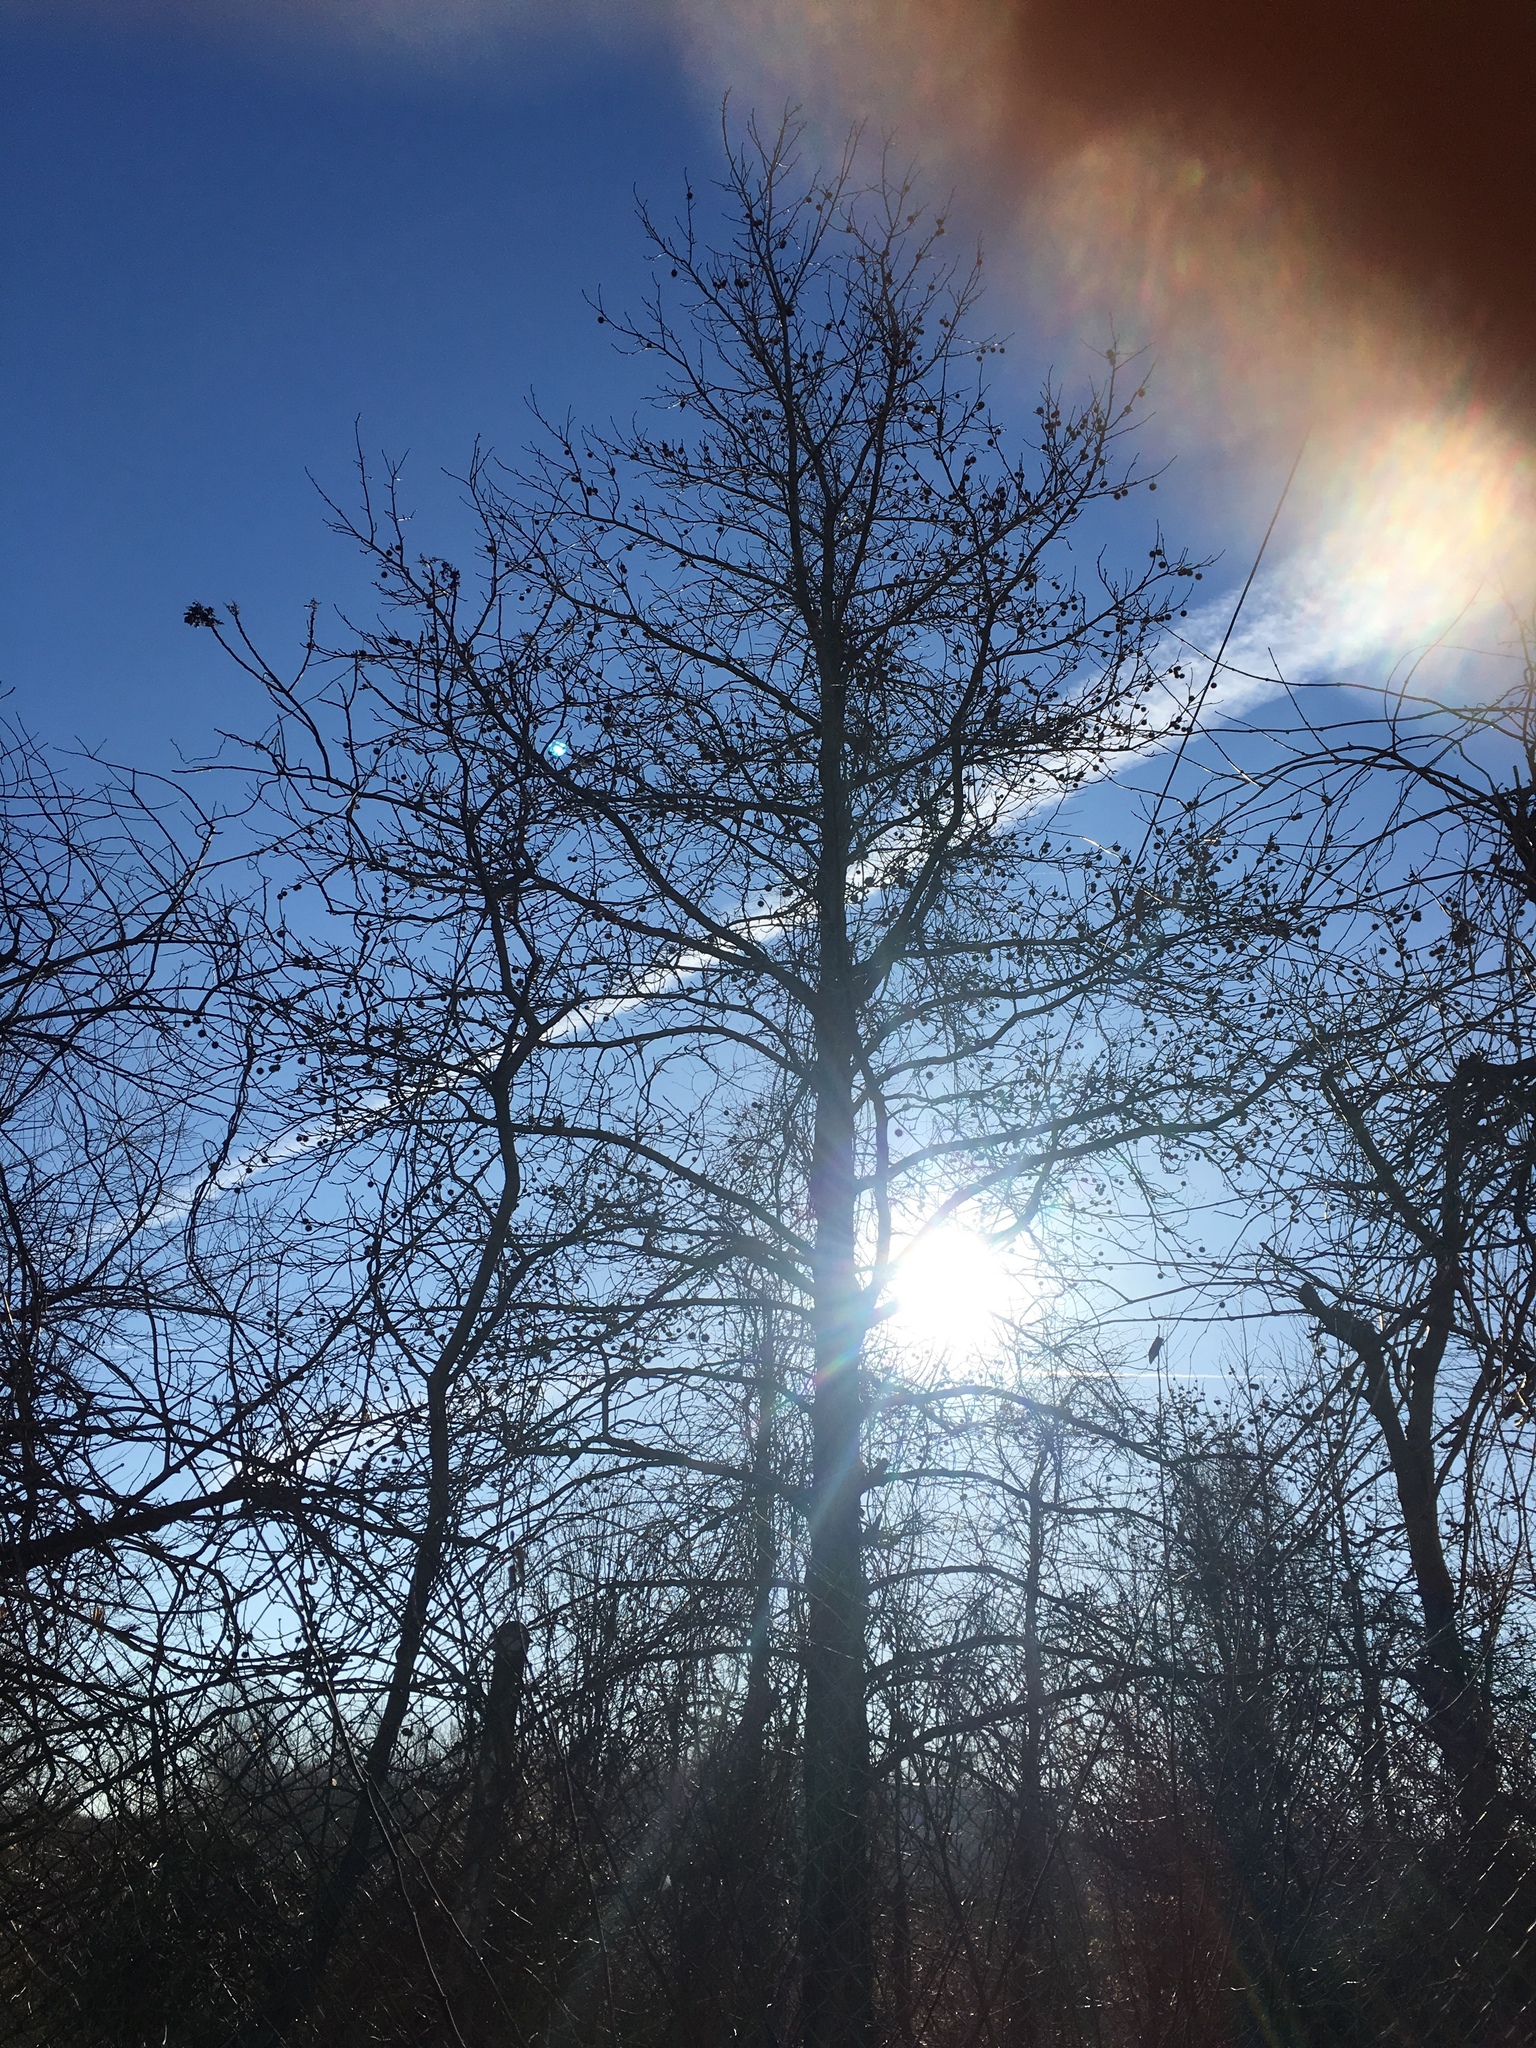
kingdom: Plantae
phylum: Tracheophyta
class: Magnoliopsida
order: Saxifragales
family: Altingiaceae
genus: Liquidambar
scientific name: Liquidambar styraciflua
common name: Sweet gum
